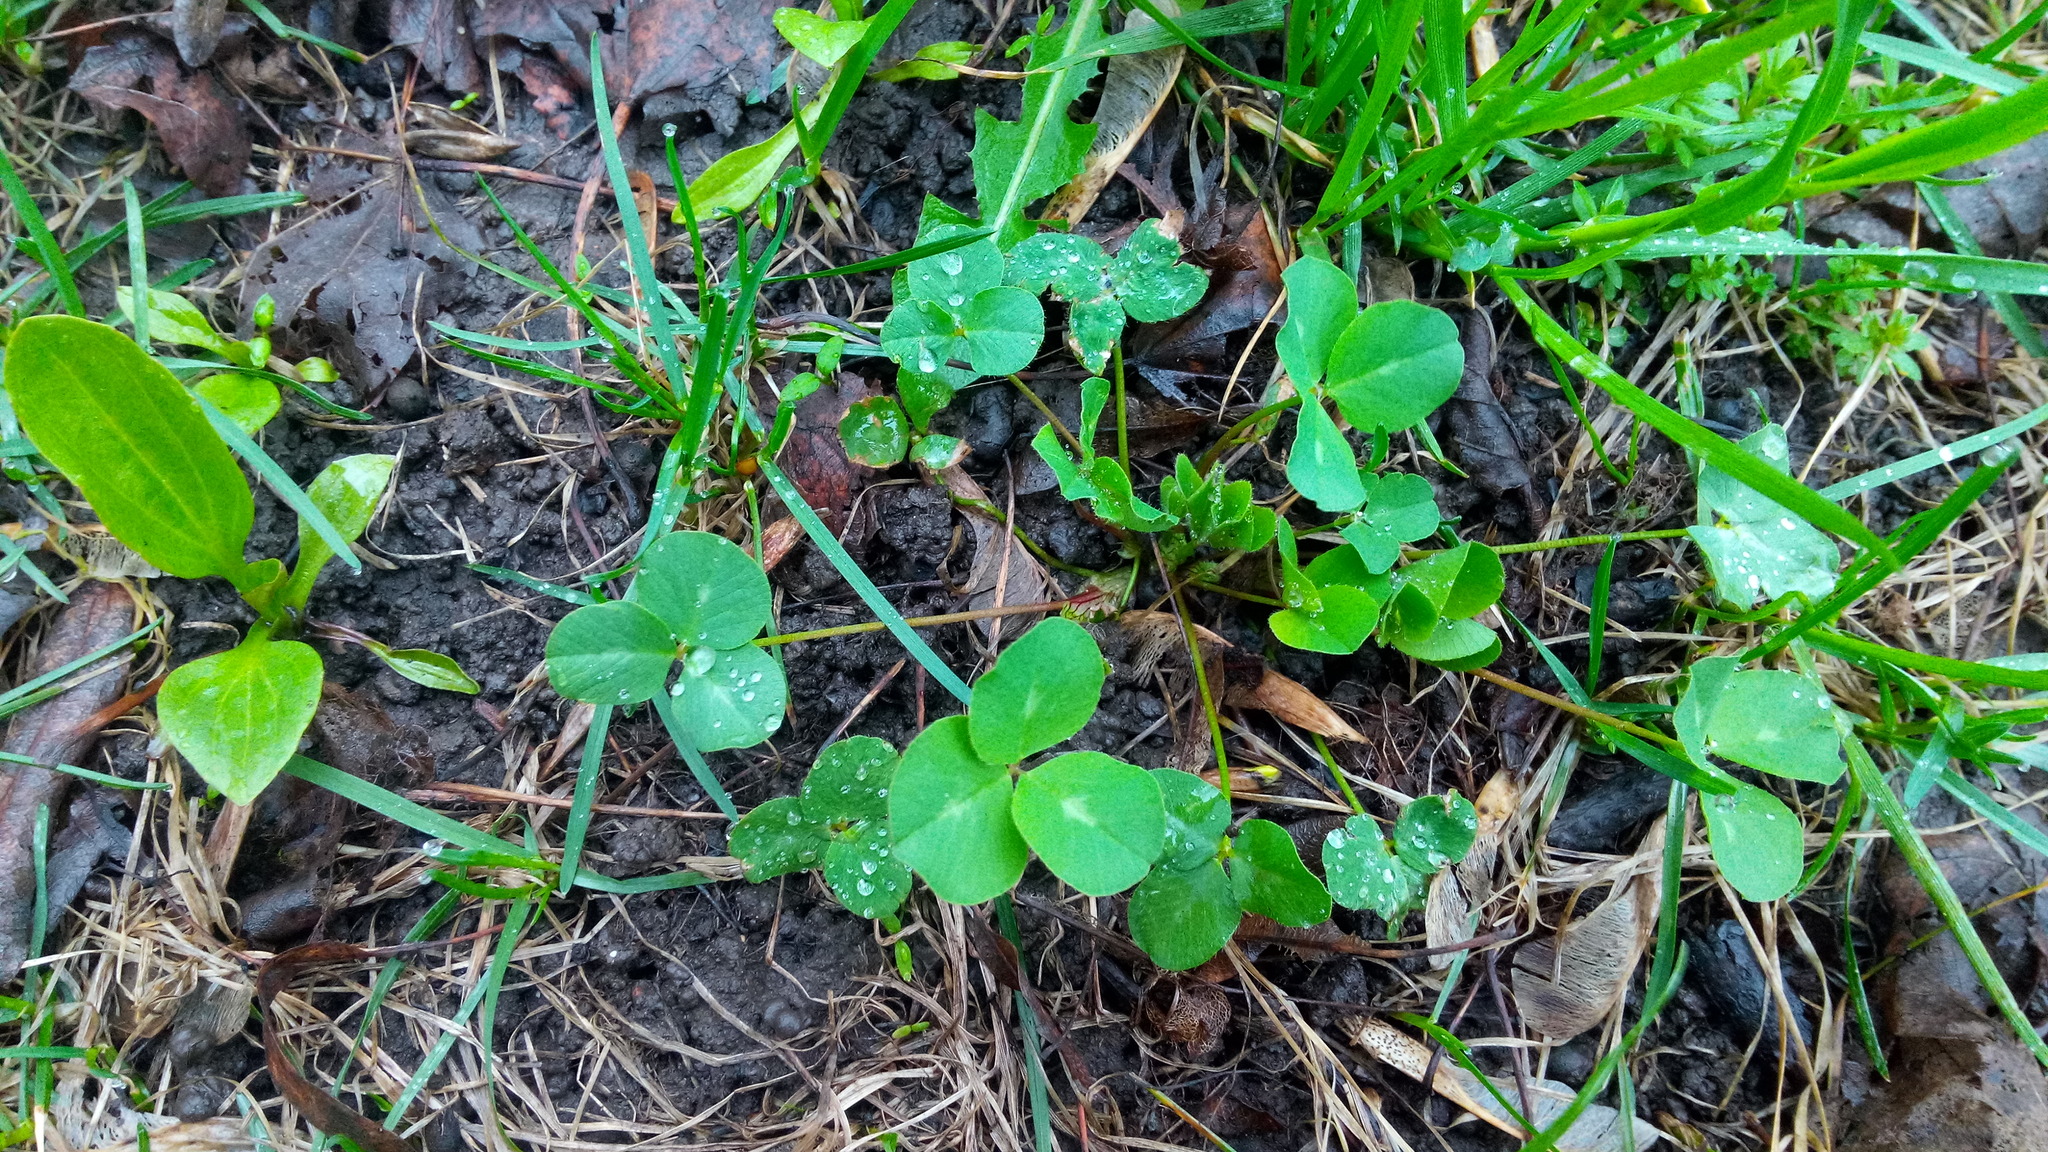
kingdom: Plantae
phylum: Tracheophyta
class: Magnoliopsida
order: Fabales
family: Fabaceae
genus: Trifolium
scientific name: Trifolium pratense
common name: Red clover
